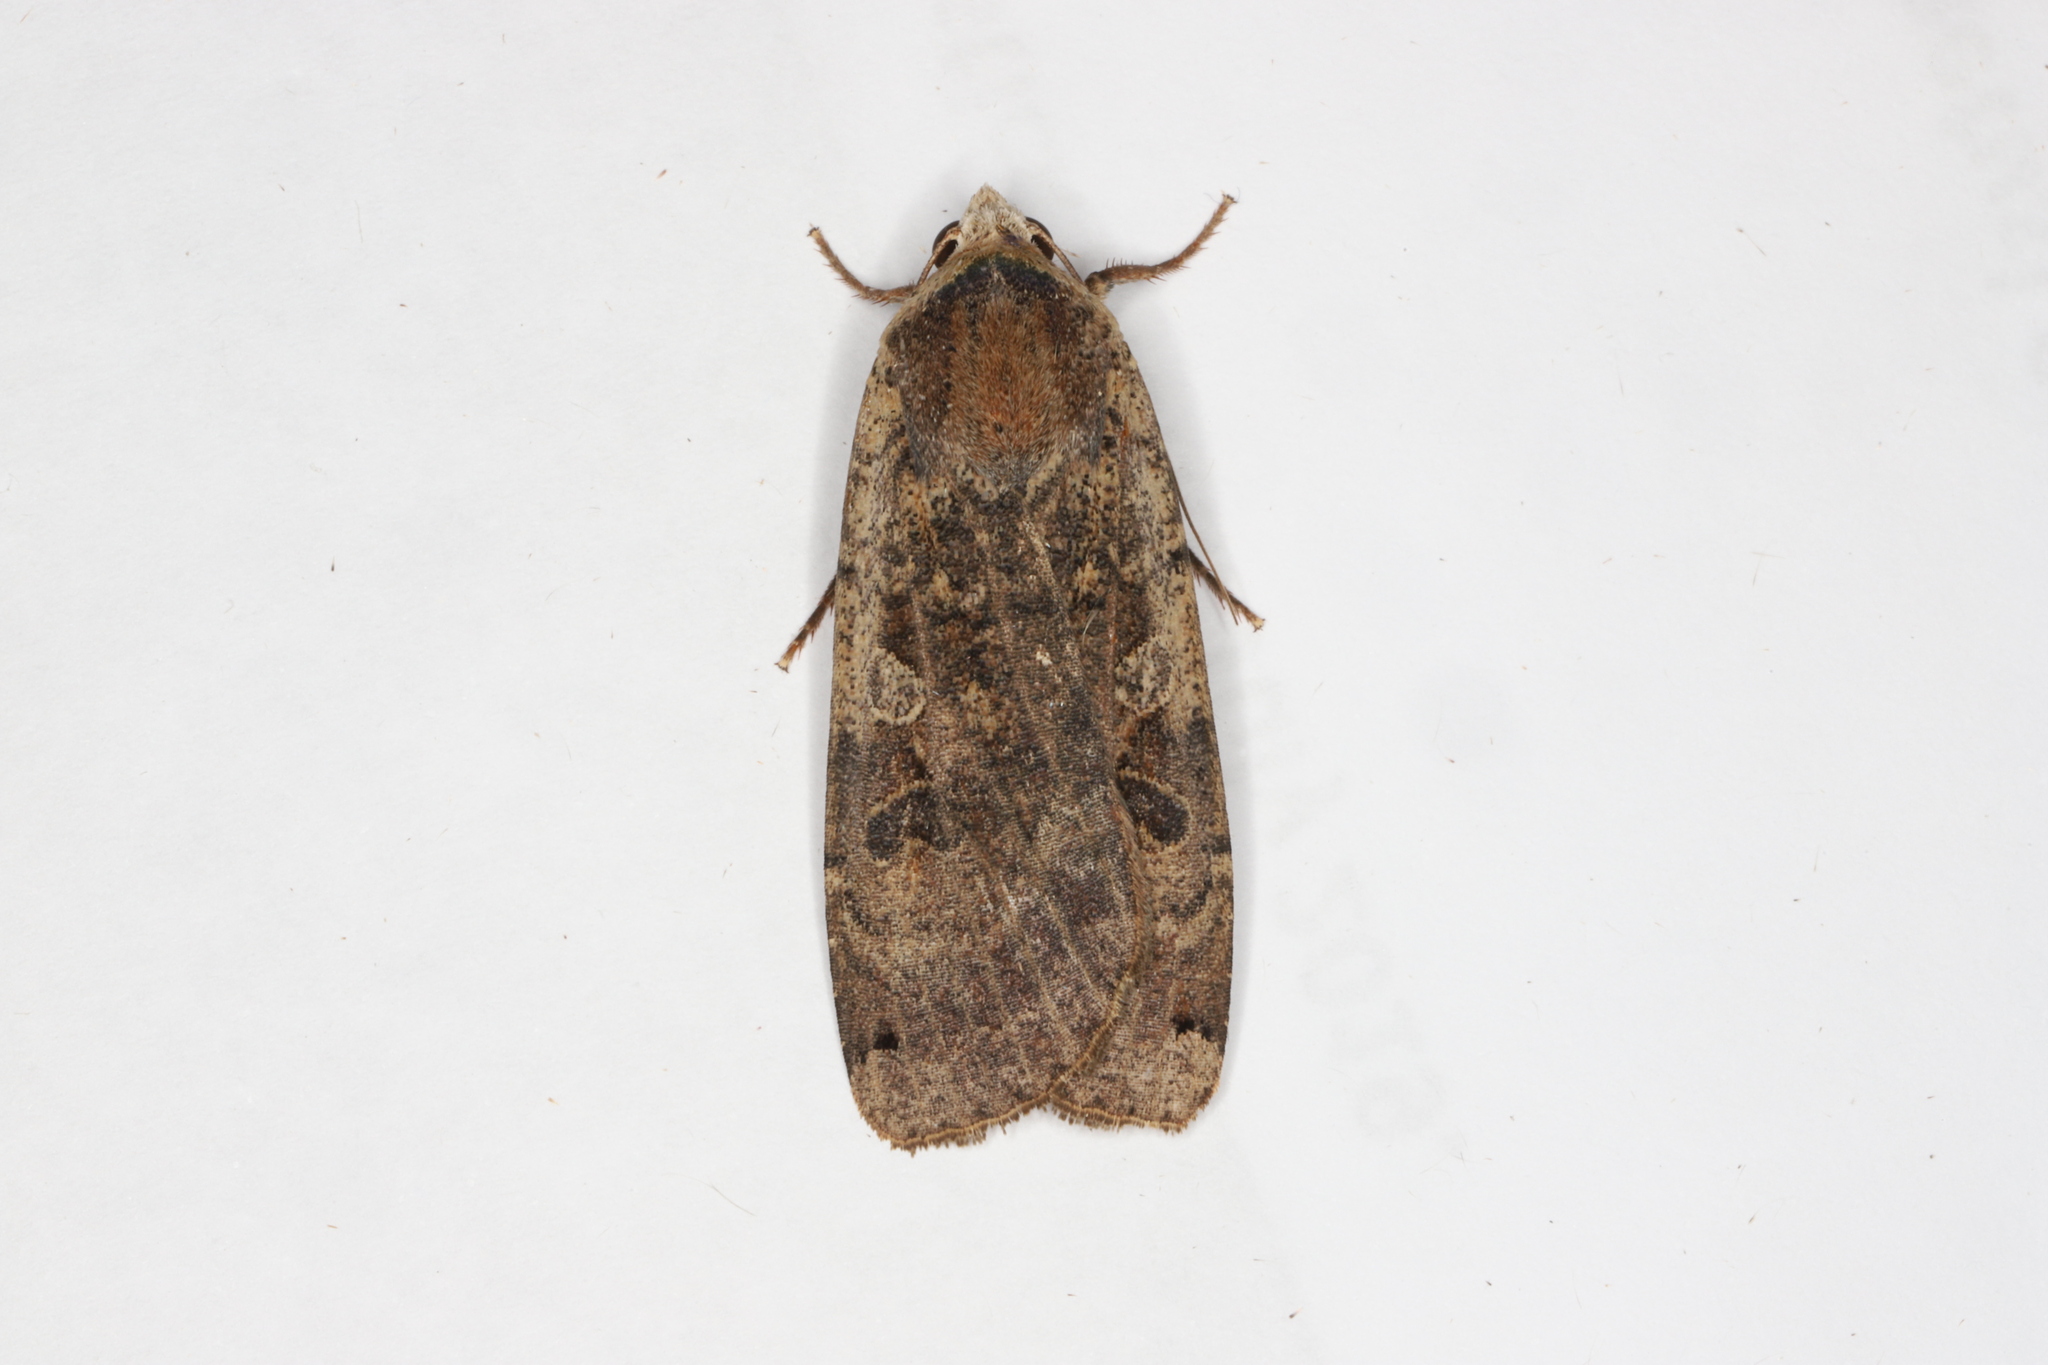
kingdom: Animalia
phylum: Arthropoda
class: Insecta
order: Lepidoptera
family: Noctuidae
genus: Noctua
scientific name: Noctua pronuba
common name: Large yellow underwing
